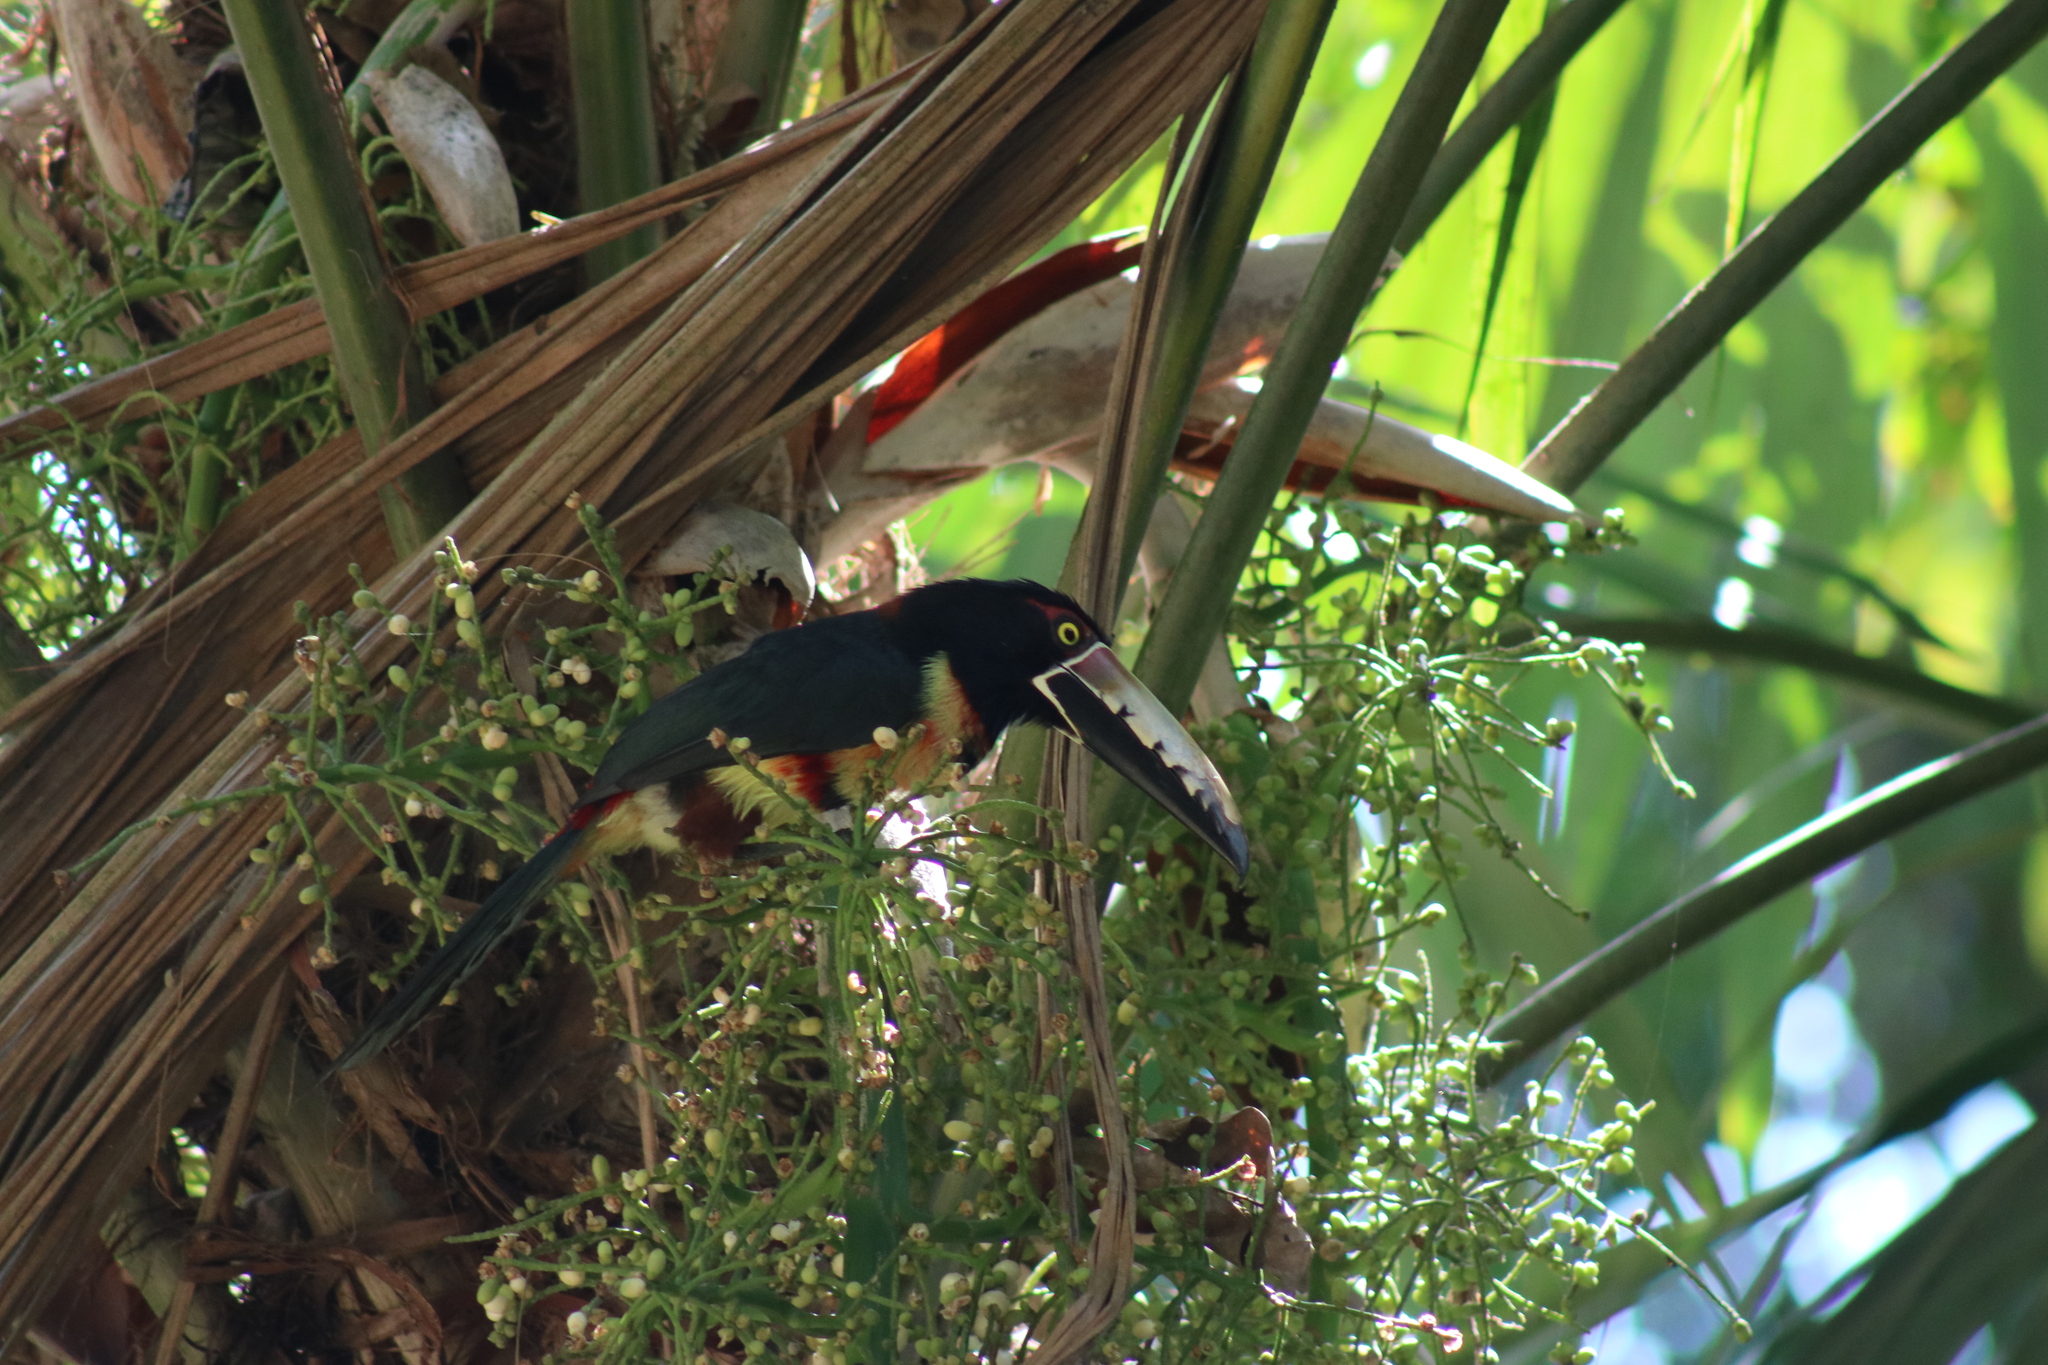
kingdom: Animalia
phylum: Chordata
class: Aves
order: Piciformes
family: Ramphastidae
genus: Pteroglossus
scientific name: Pteroglossus torquatus
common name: Collared aracari
